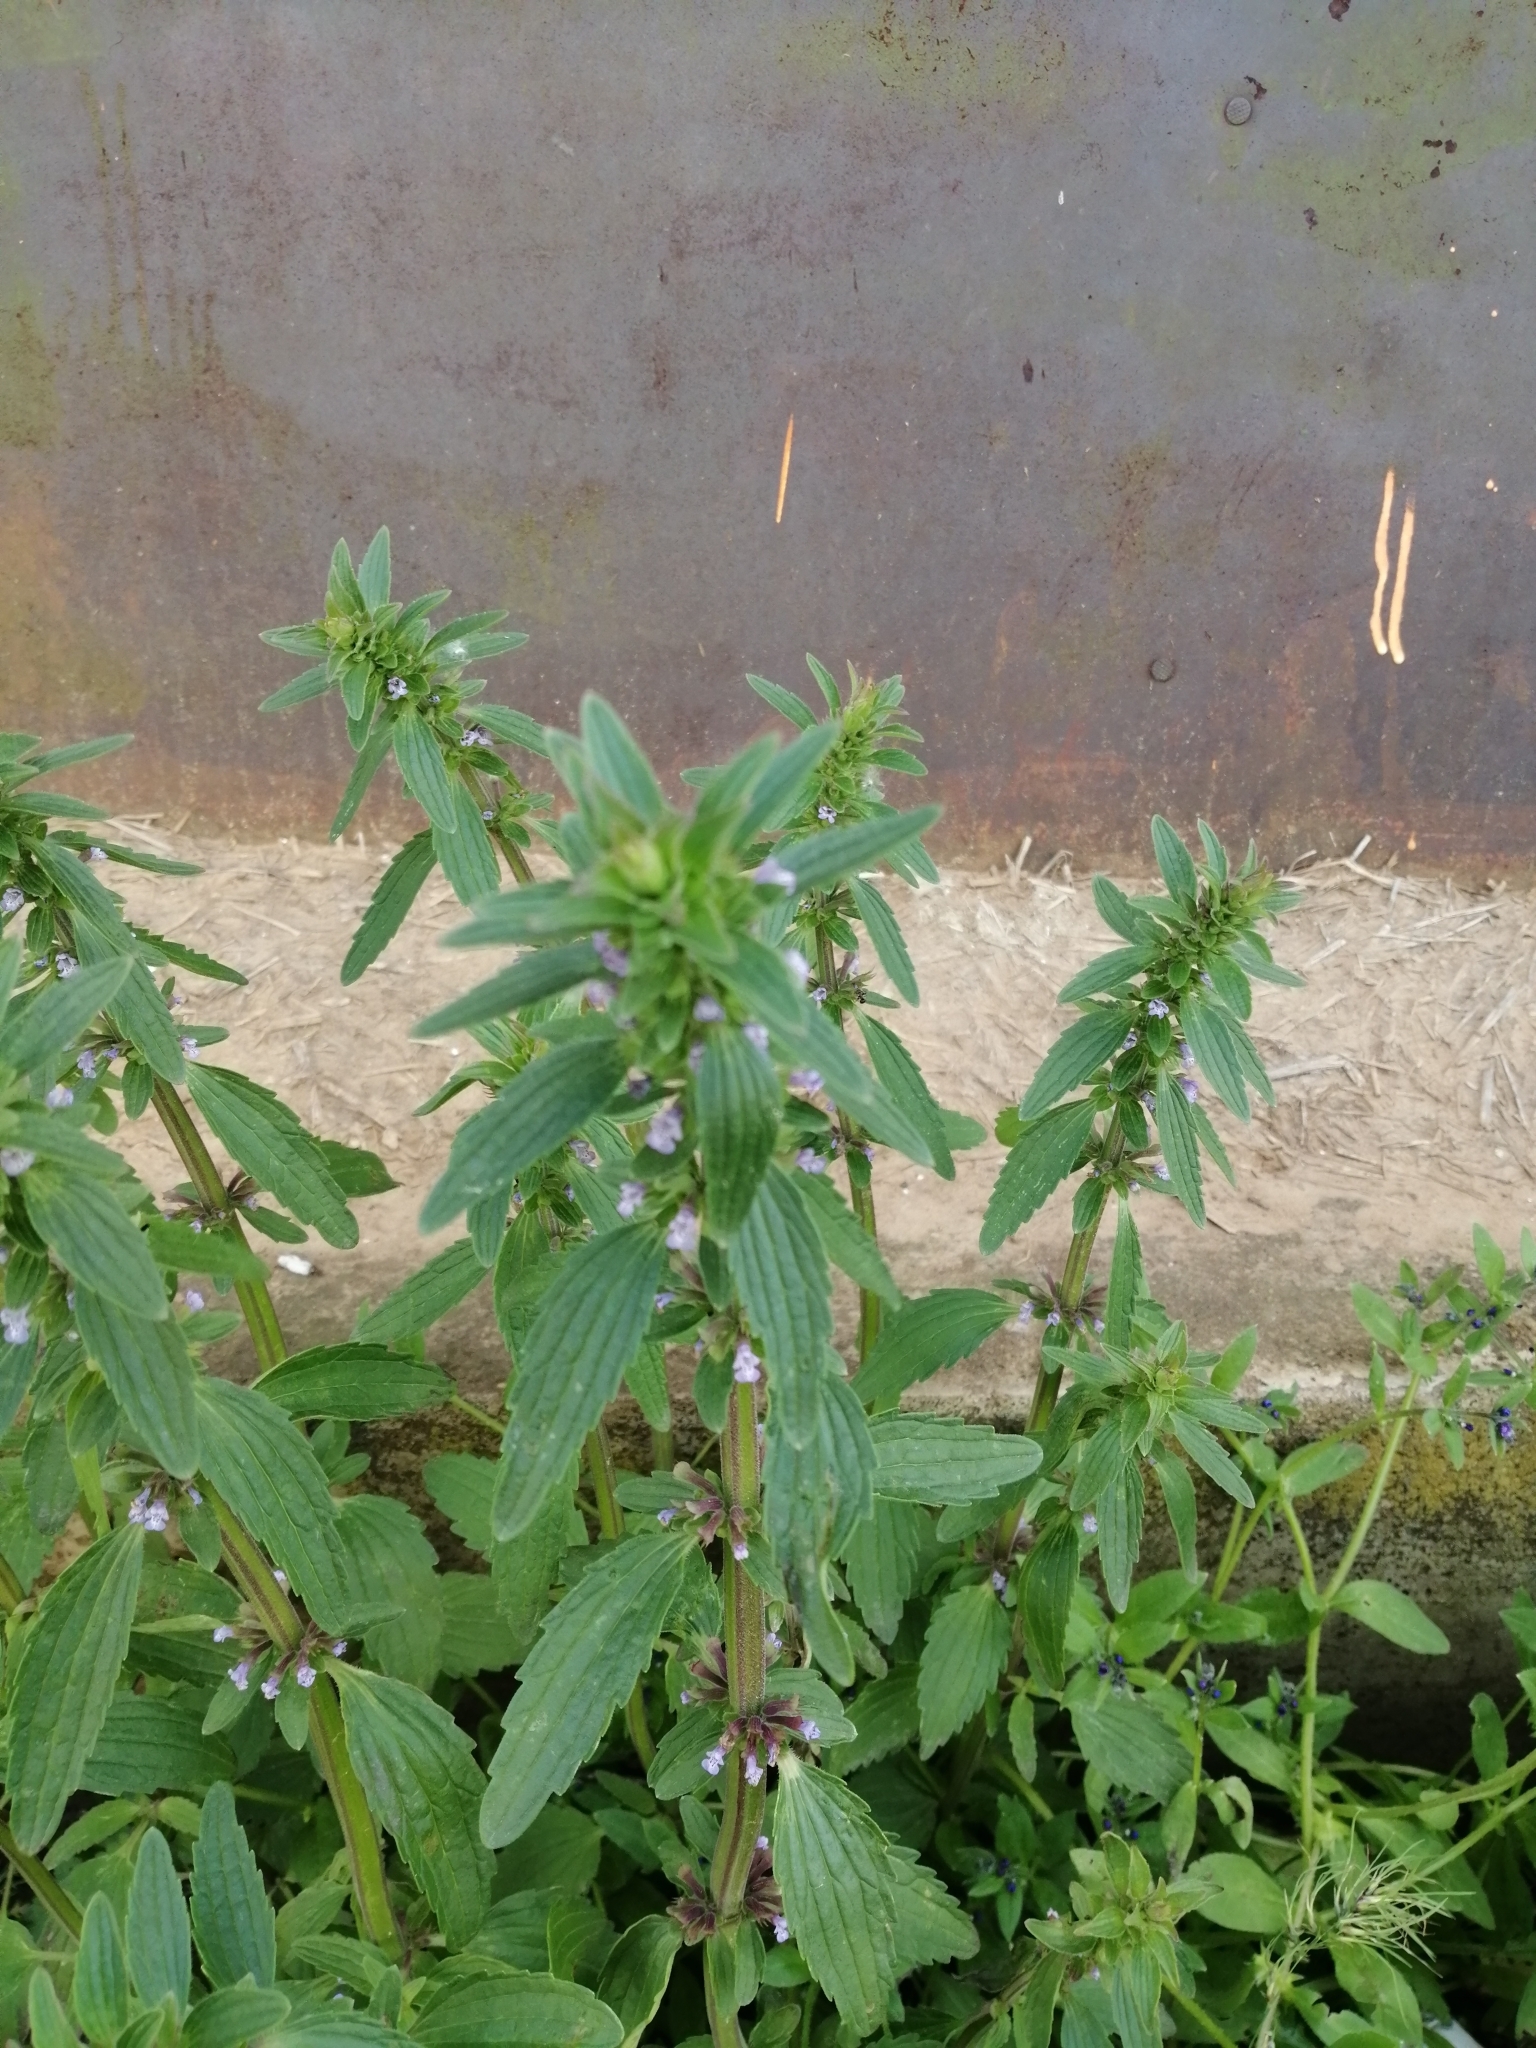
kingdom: Plantae
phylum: Tracheophyta
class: Magnoliopsida
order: Lamiales
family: Lamiaceae
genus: Dracocephalum
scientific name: Dracocephalum thymiflorum
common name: Thymeleaf dragonhead
